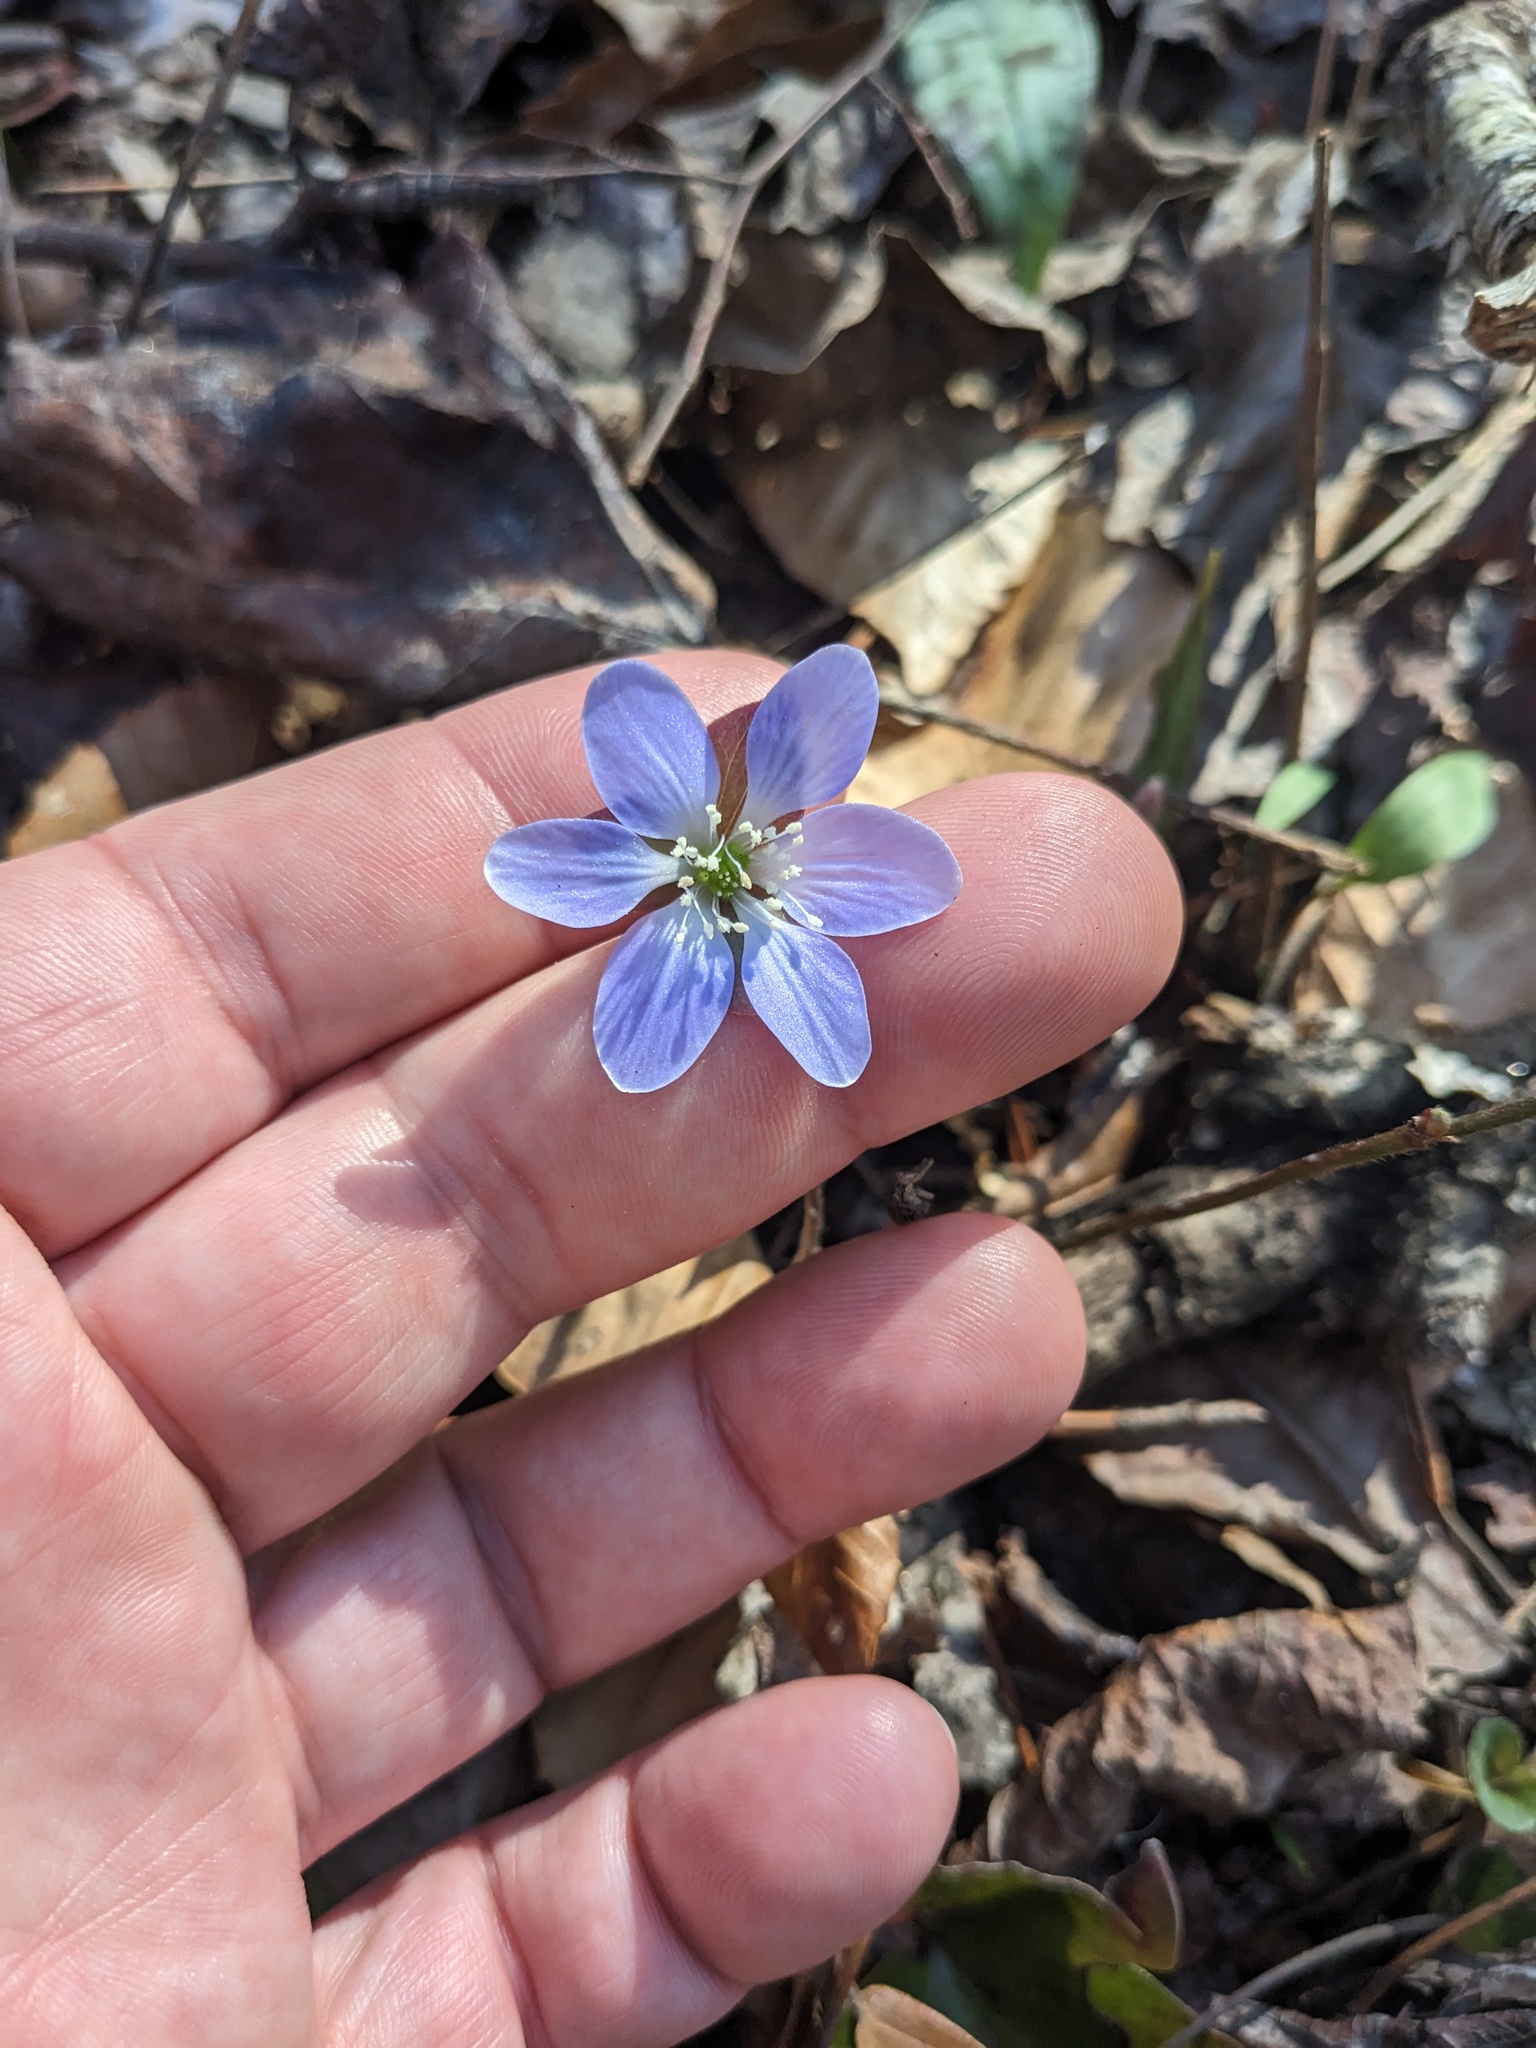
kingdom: Plantae
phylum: Tracheophyta
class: Magnoliopsida
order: Ranunculales
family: Ranunculaceae
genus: Hepatica
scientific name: Hepatica americana
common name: American hepatica
